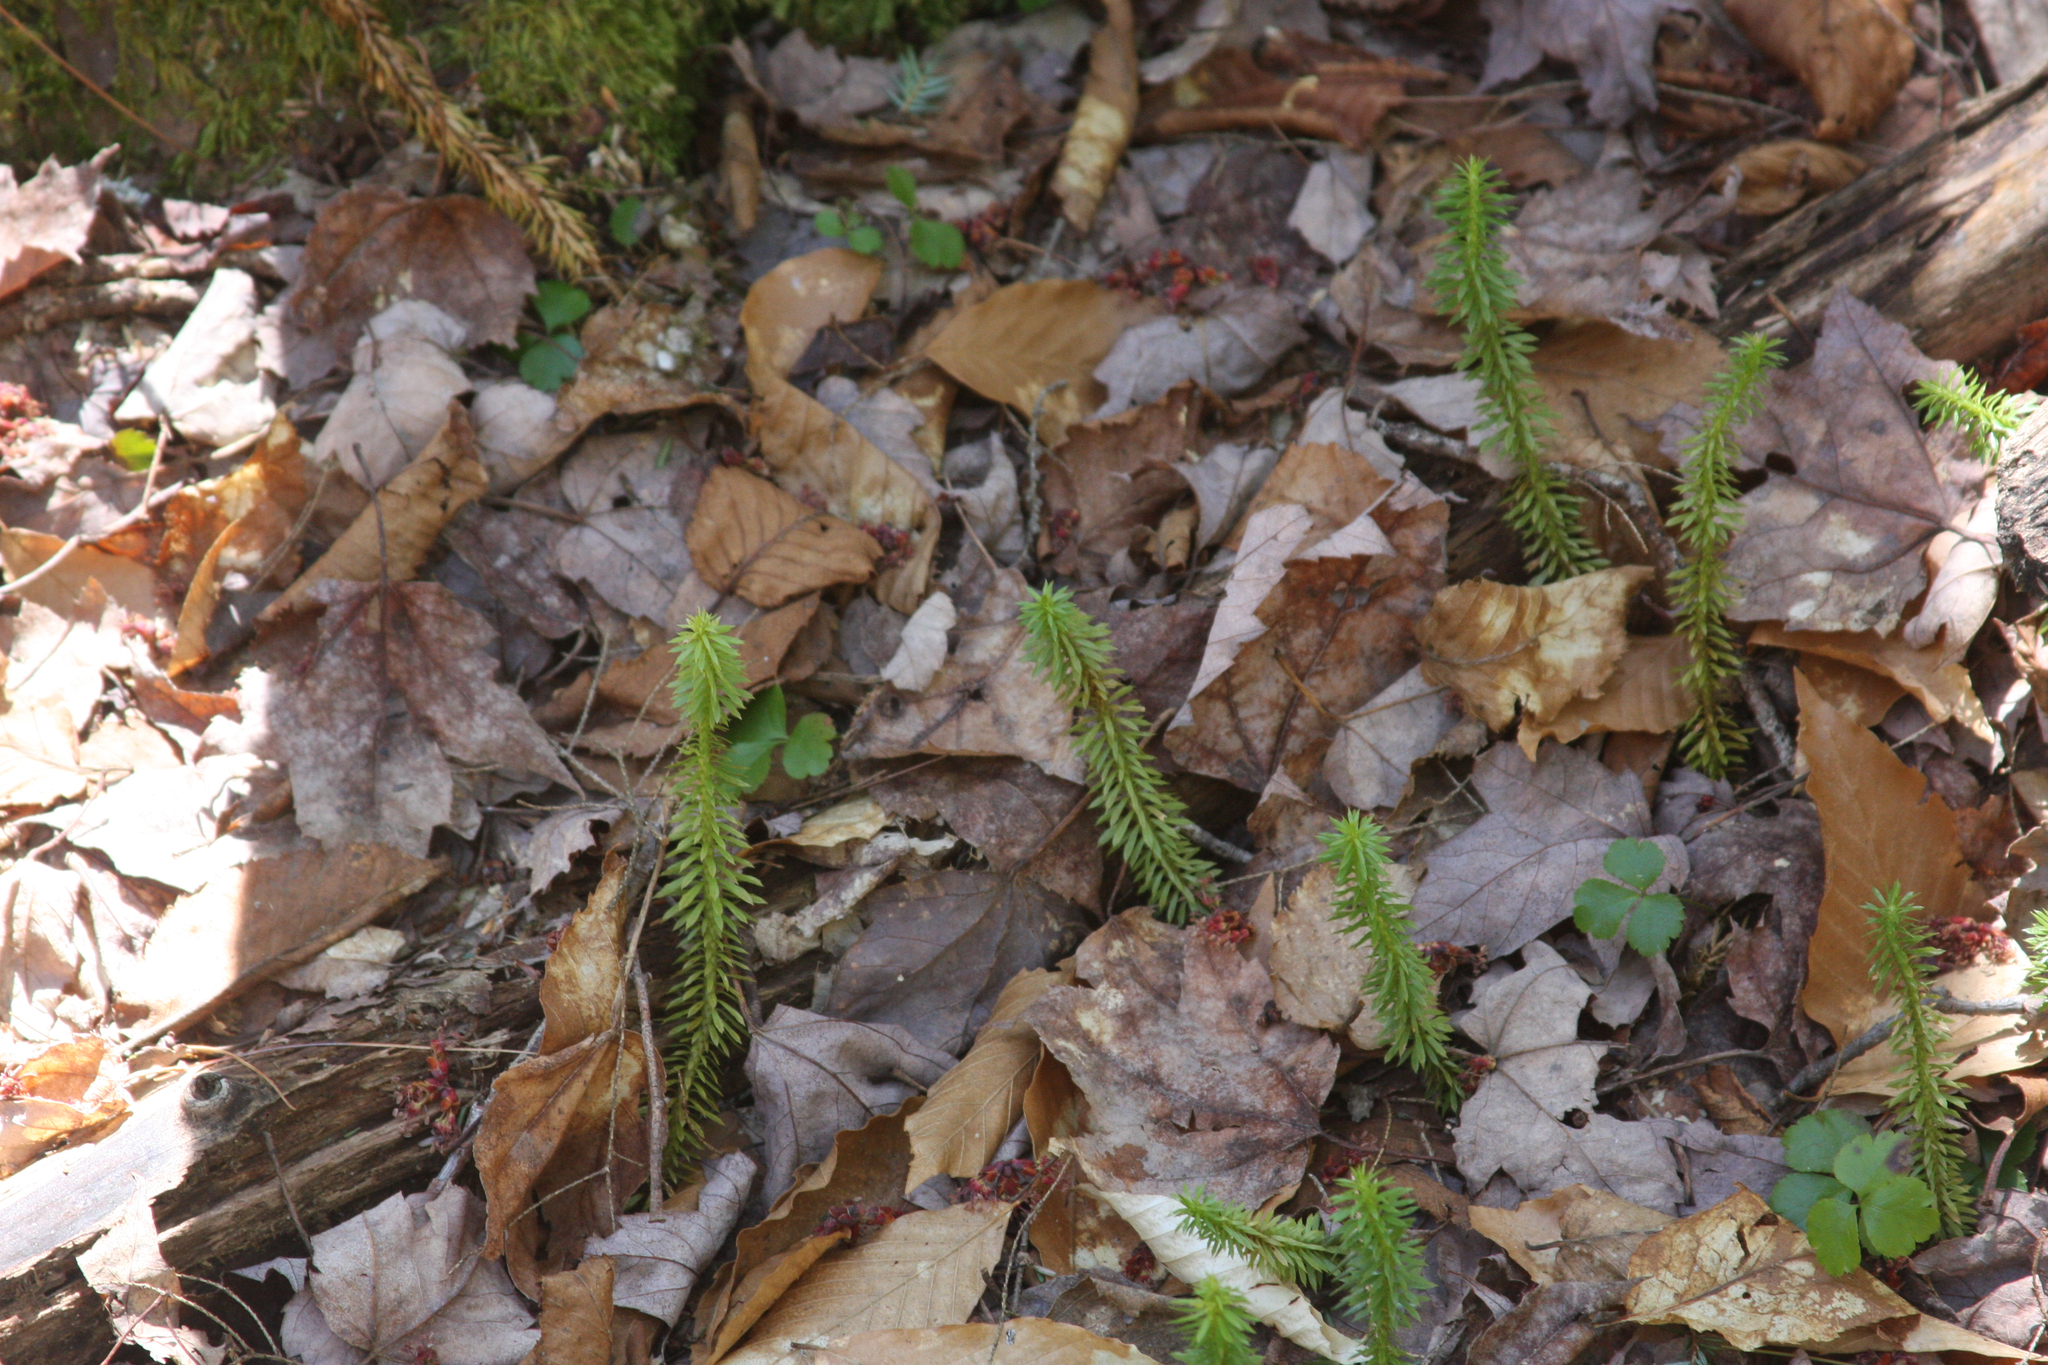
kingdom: Plantae
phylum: Tracheophyta
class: Lycopodiopsida
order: Lycopodiales
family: Lycopodiaceae
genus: Spinulum
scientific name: Spinulum annotinum
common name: Interrupted club-moss
